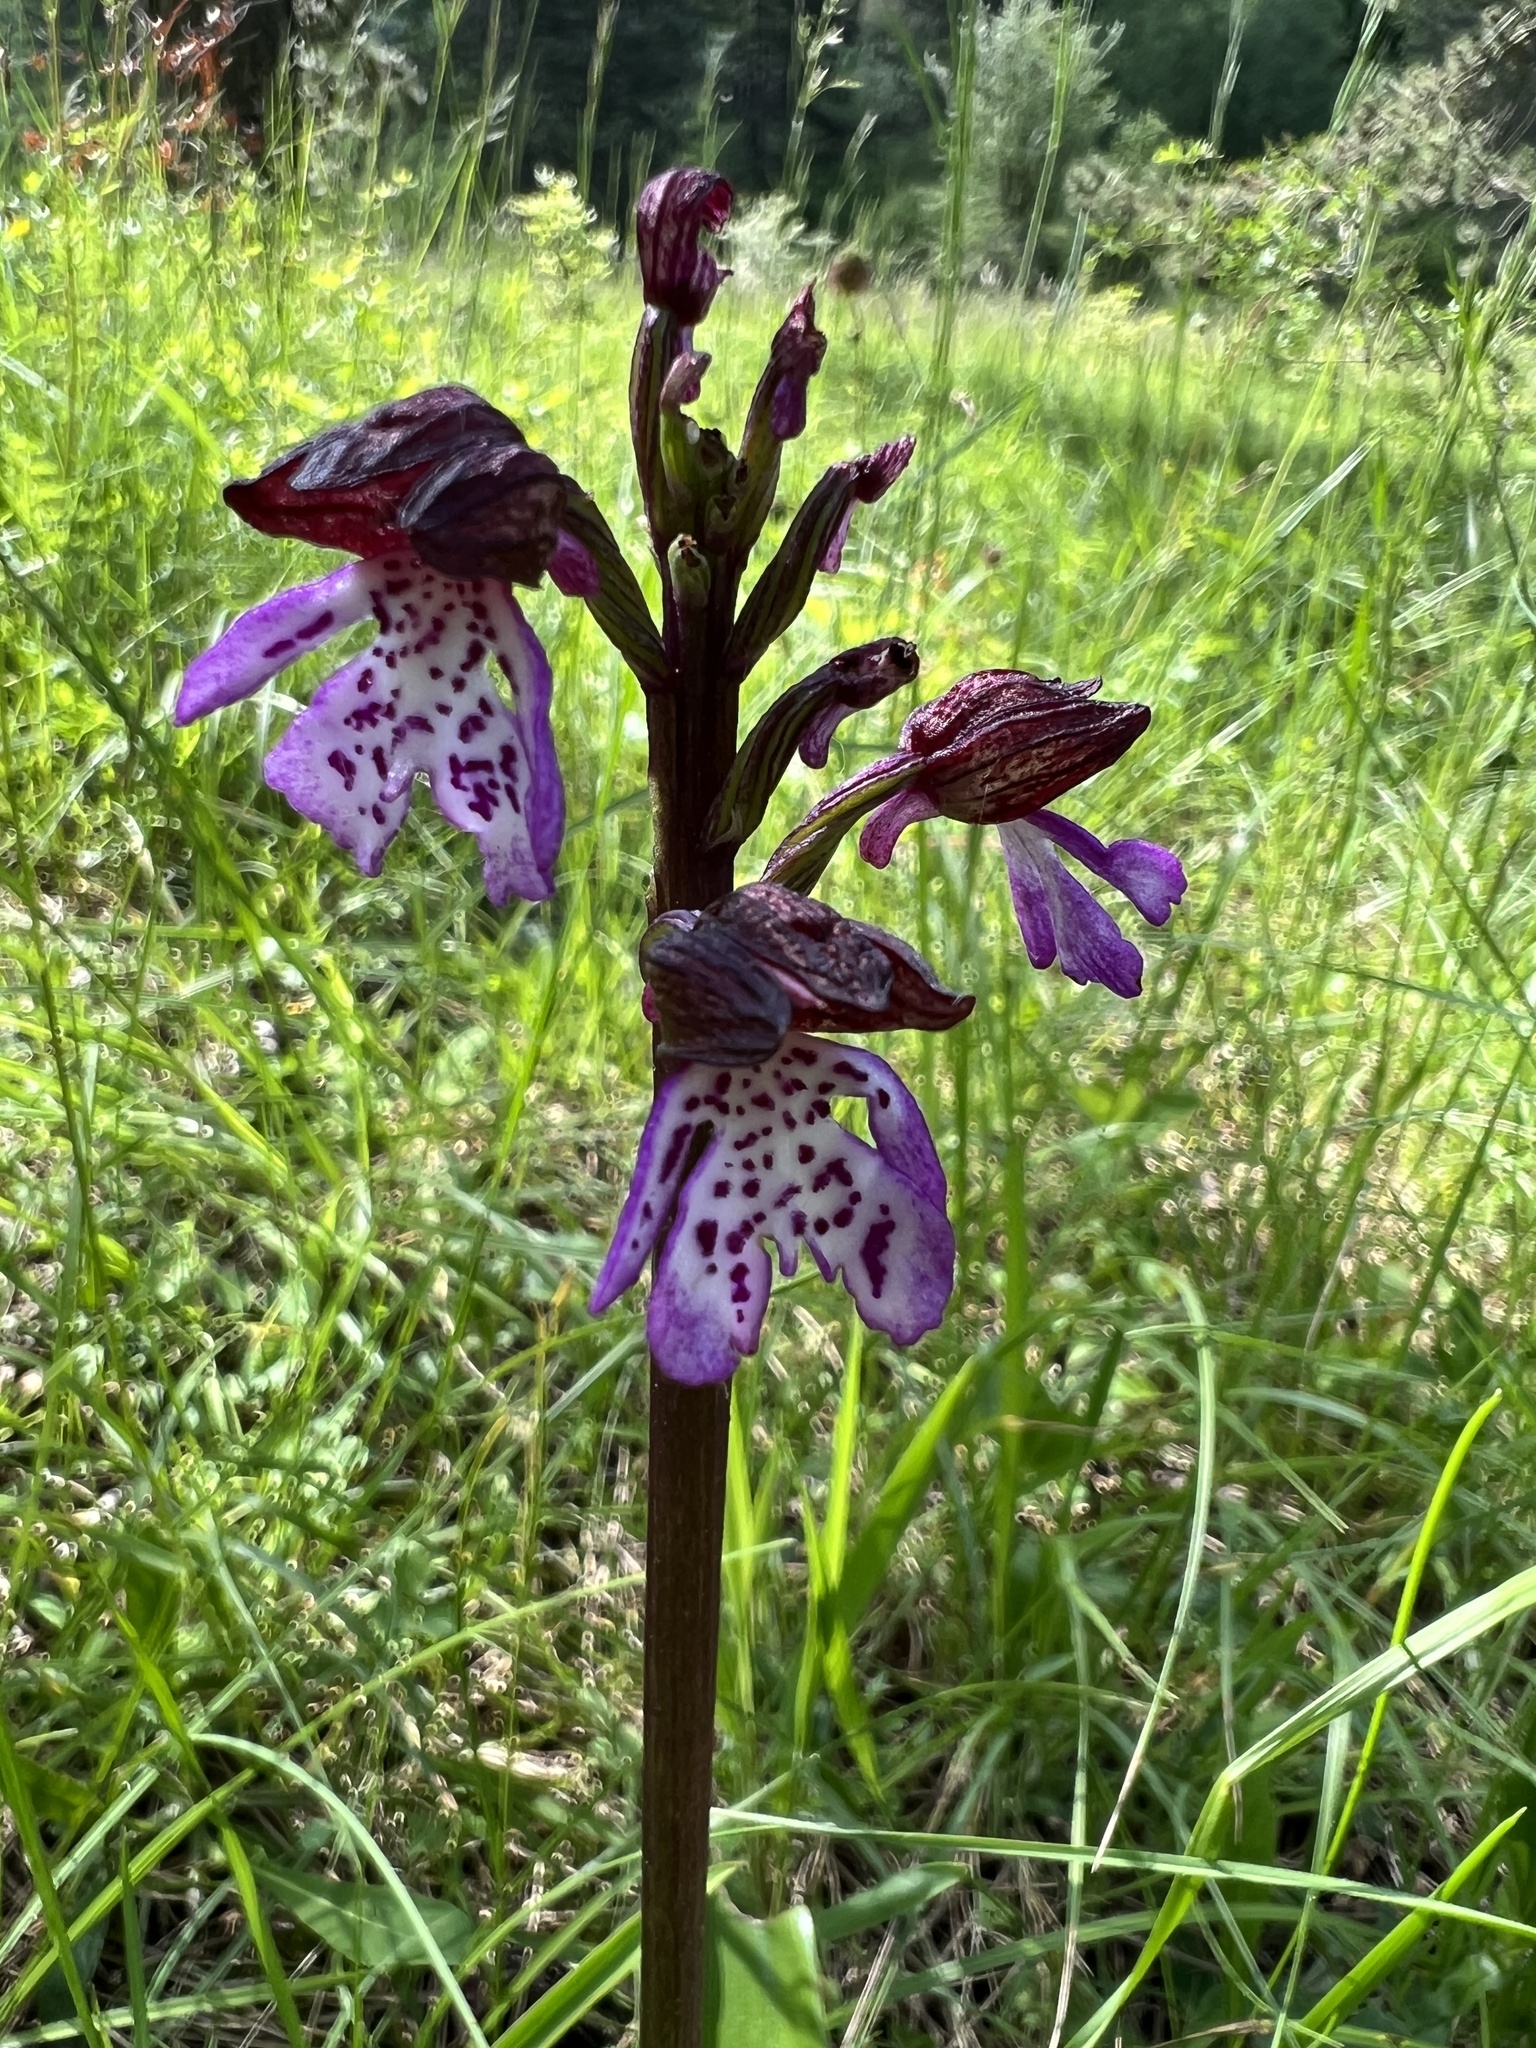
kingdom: Plantae
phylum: Tracheophyta
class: Liliopsida
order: Asparagales
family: Orchidaceae
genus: Orchis
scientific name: Orchis purpurea
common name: Lady orchid
